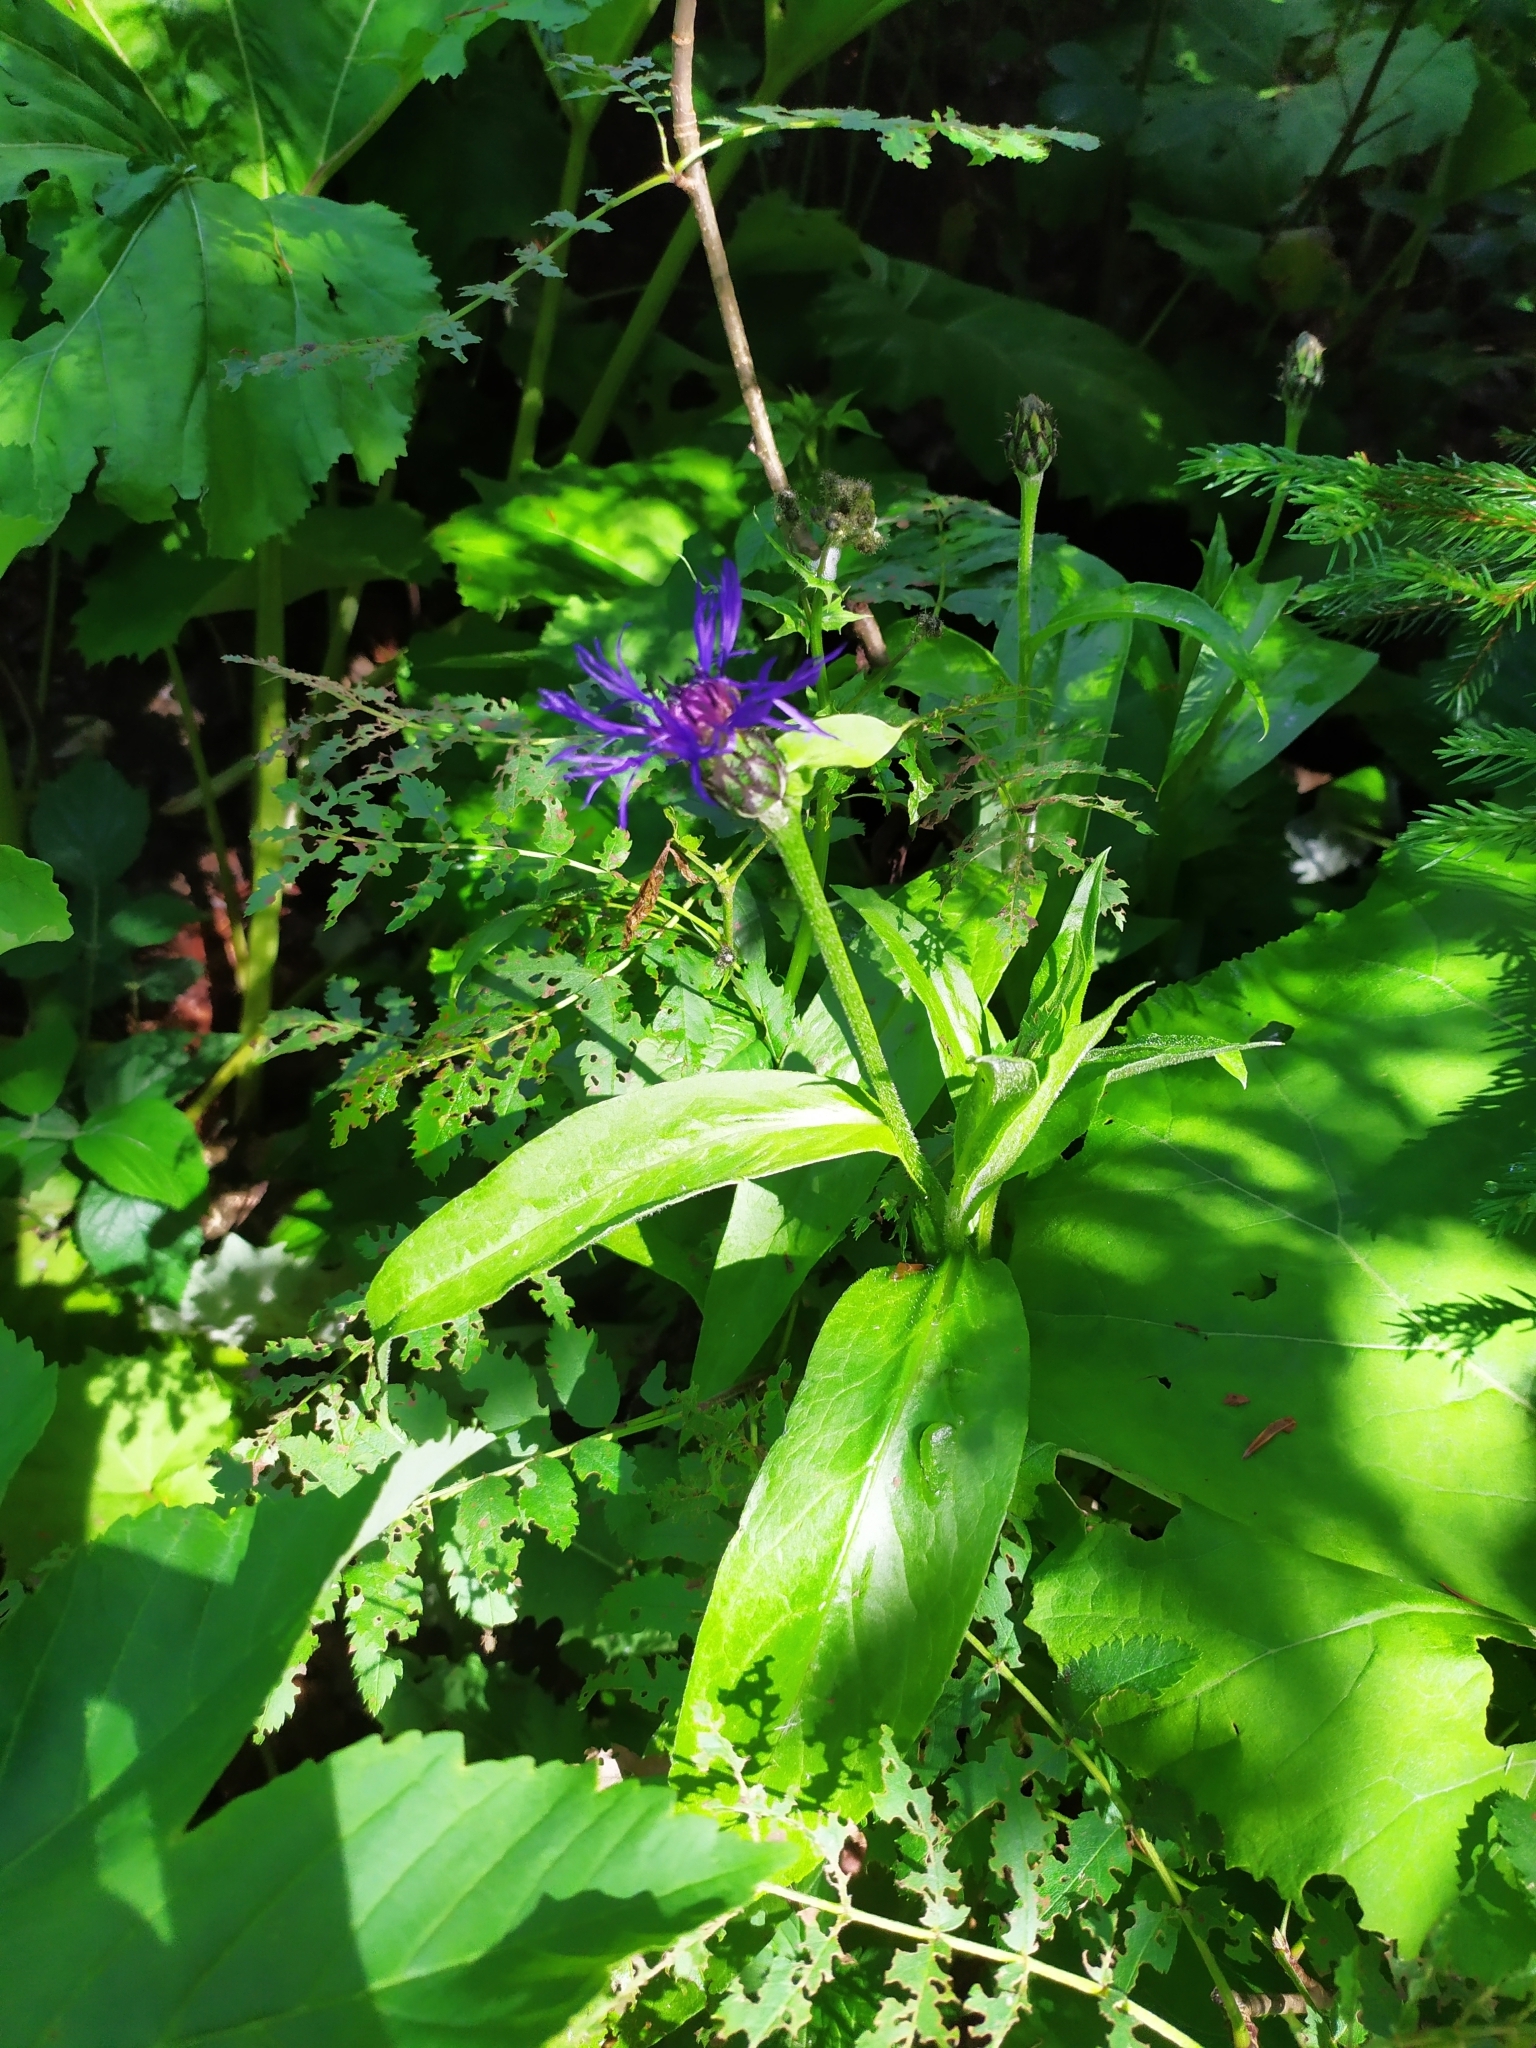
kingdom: Plantae
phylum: Tracheophyta
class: Magnoliopsida
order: Asterales
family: Asteraceae
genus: Centaurea
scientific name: Centaurea montana
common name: Perennial cornflower
